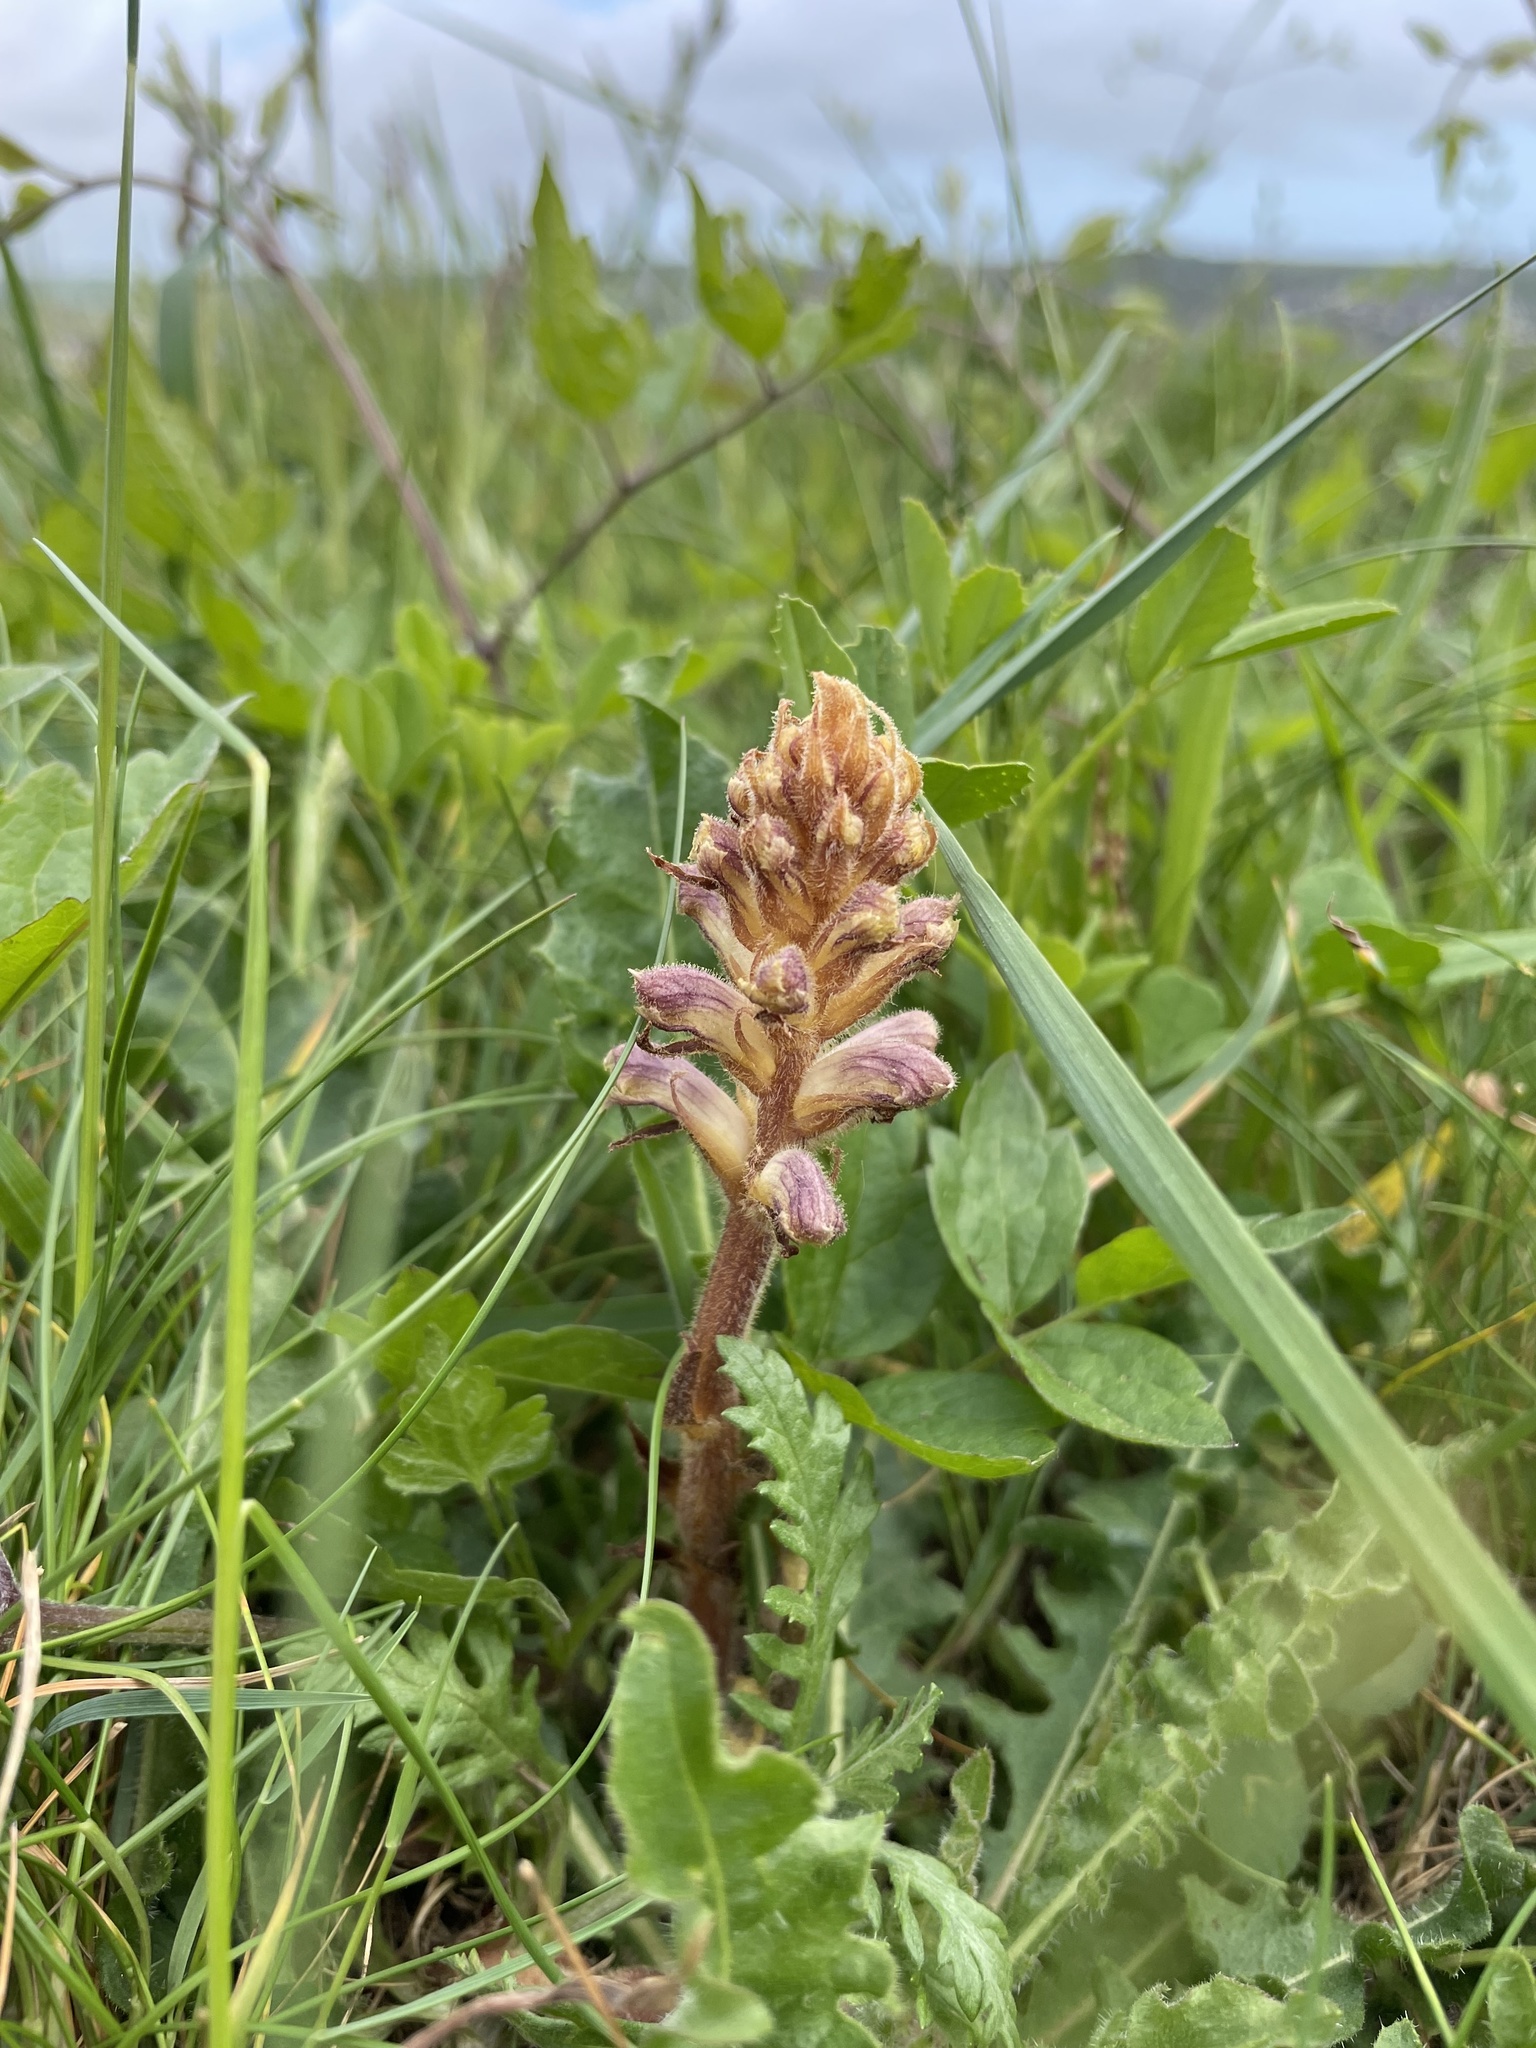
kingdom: Plantae
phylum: Tracheophyta
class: Magnoliopsida
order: Lamiales
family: Orobanchaceae
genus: Orobanche
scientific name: Orobanche minor
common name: Common broomrape
